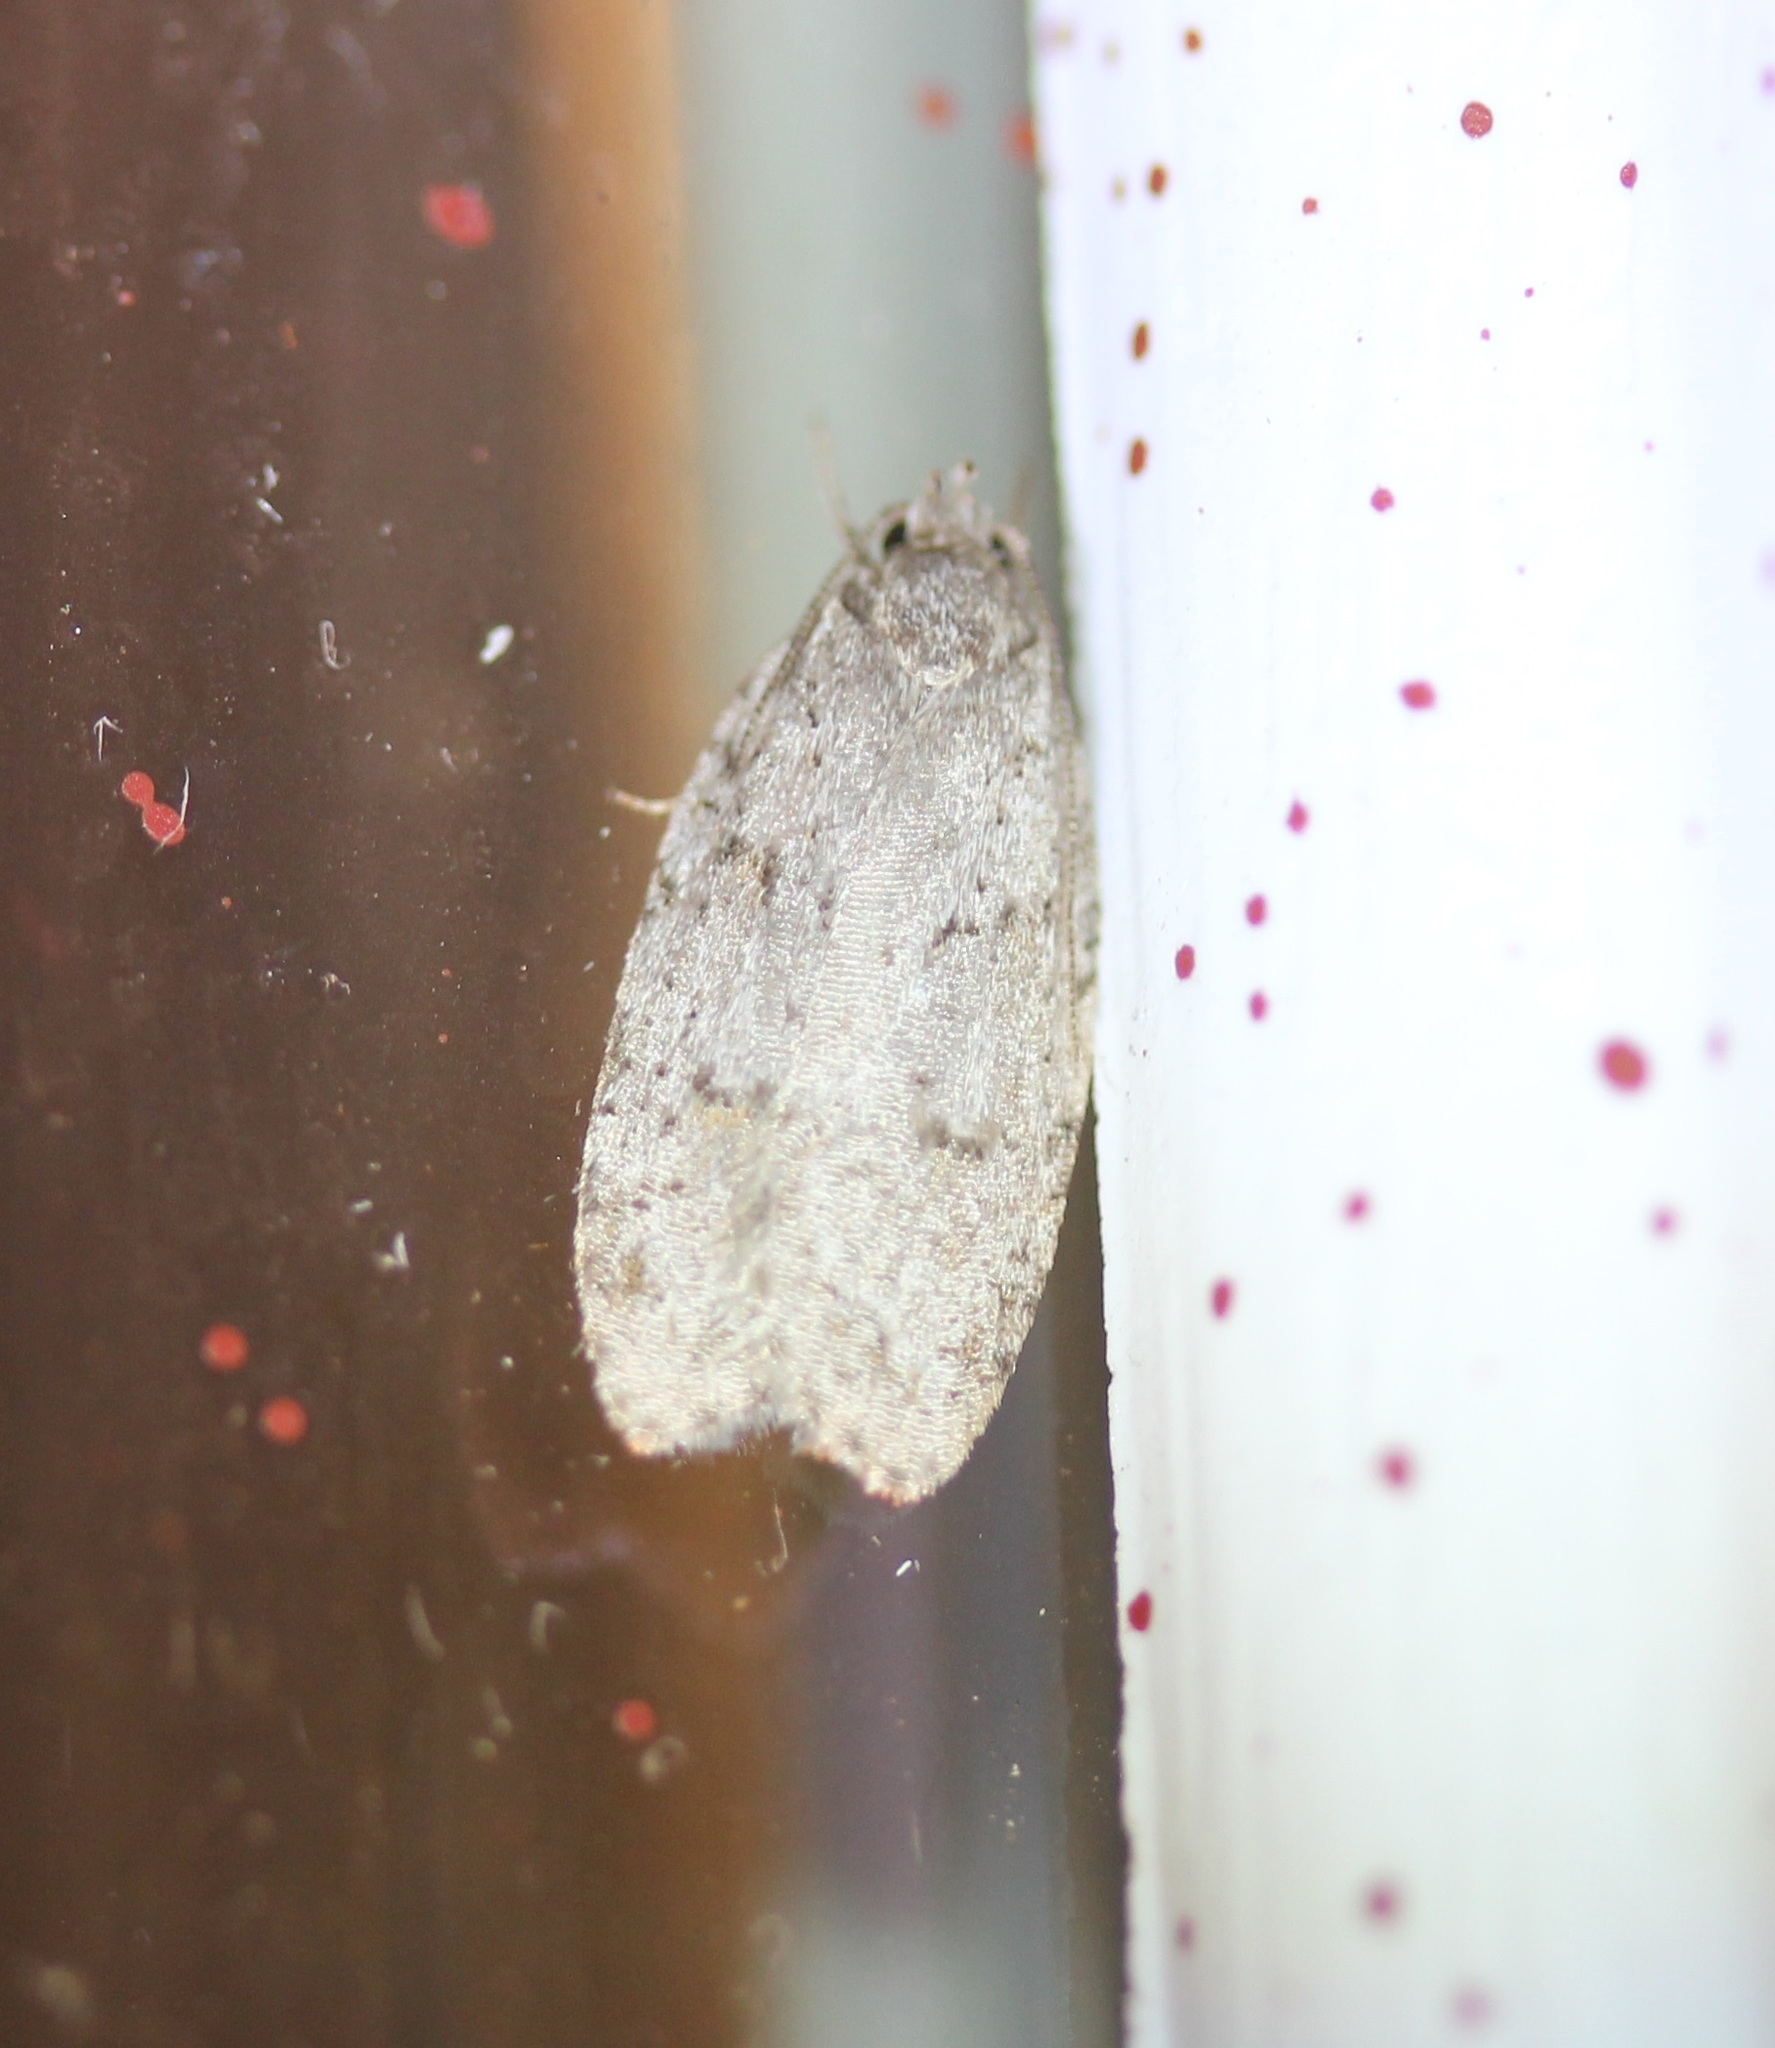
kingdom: Animalia
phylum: Arthropoda
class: Insecta
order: Lepidoptera
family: Depressariidae
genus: Bibarrambla
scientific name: Bibarrambla allenella
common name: Bog bibarrambla moth
